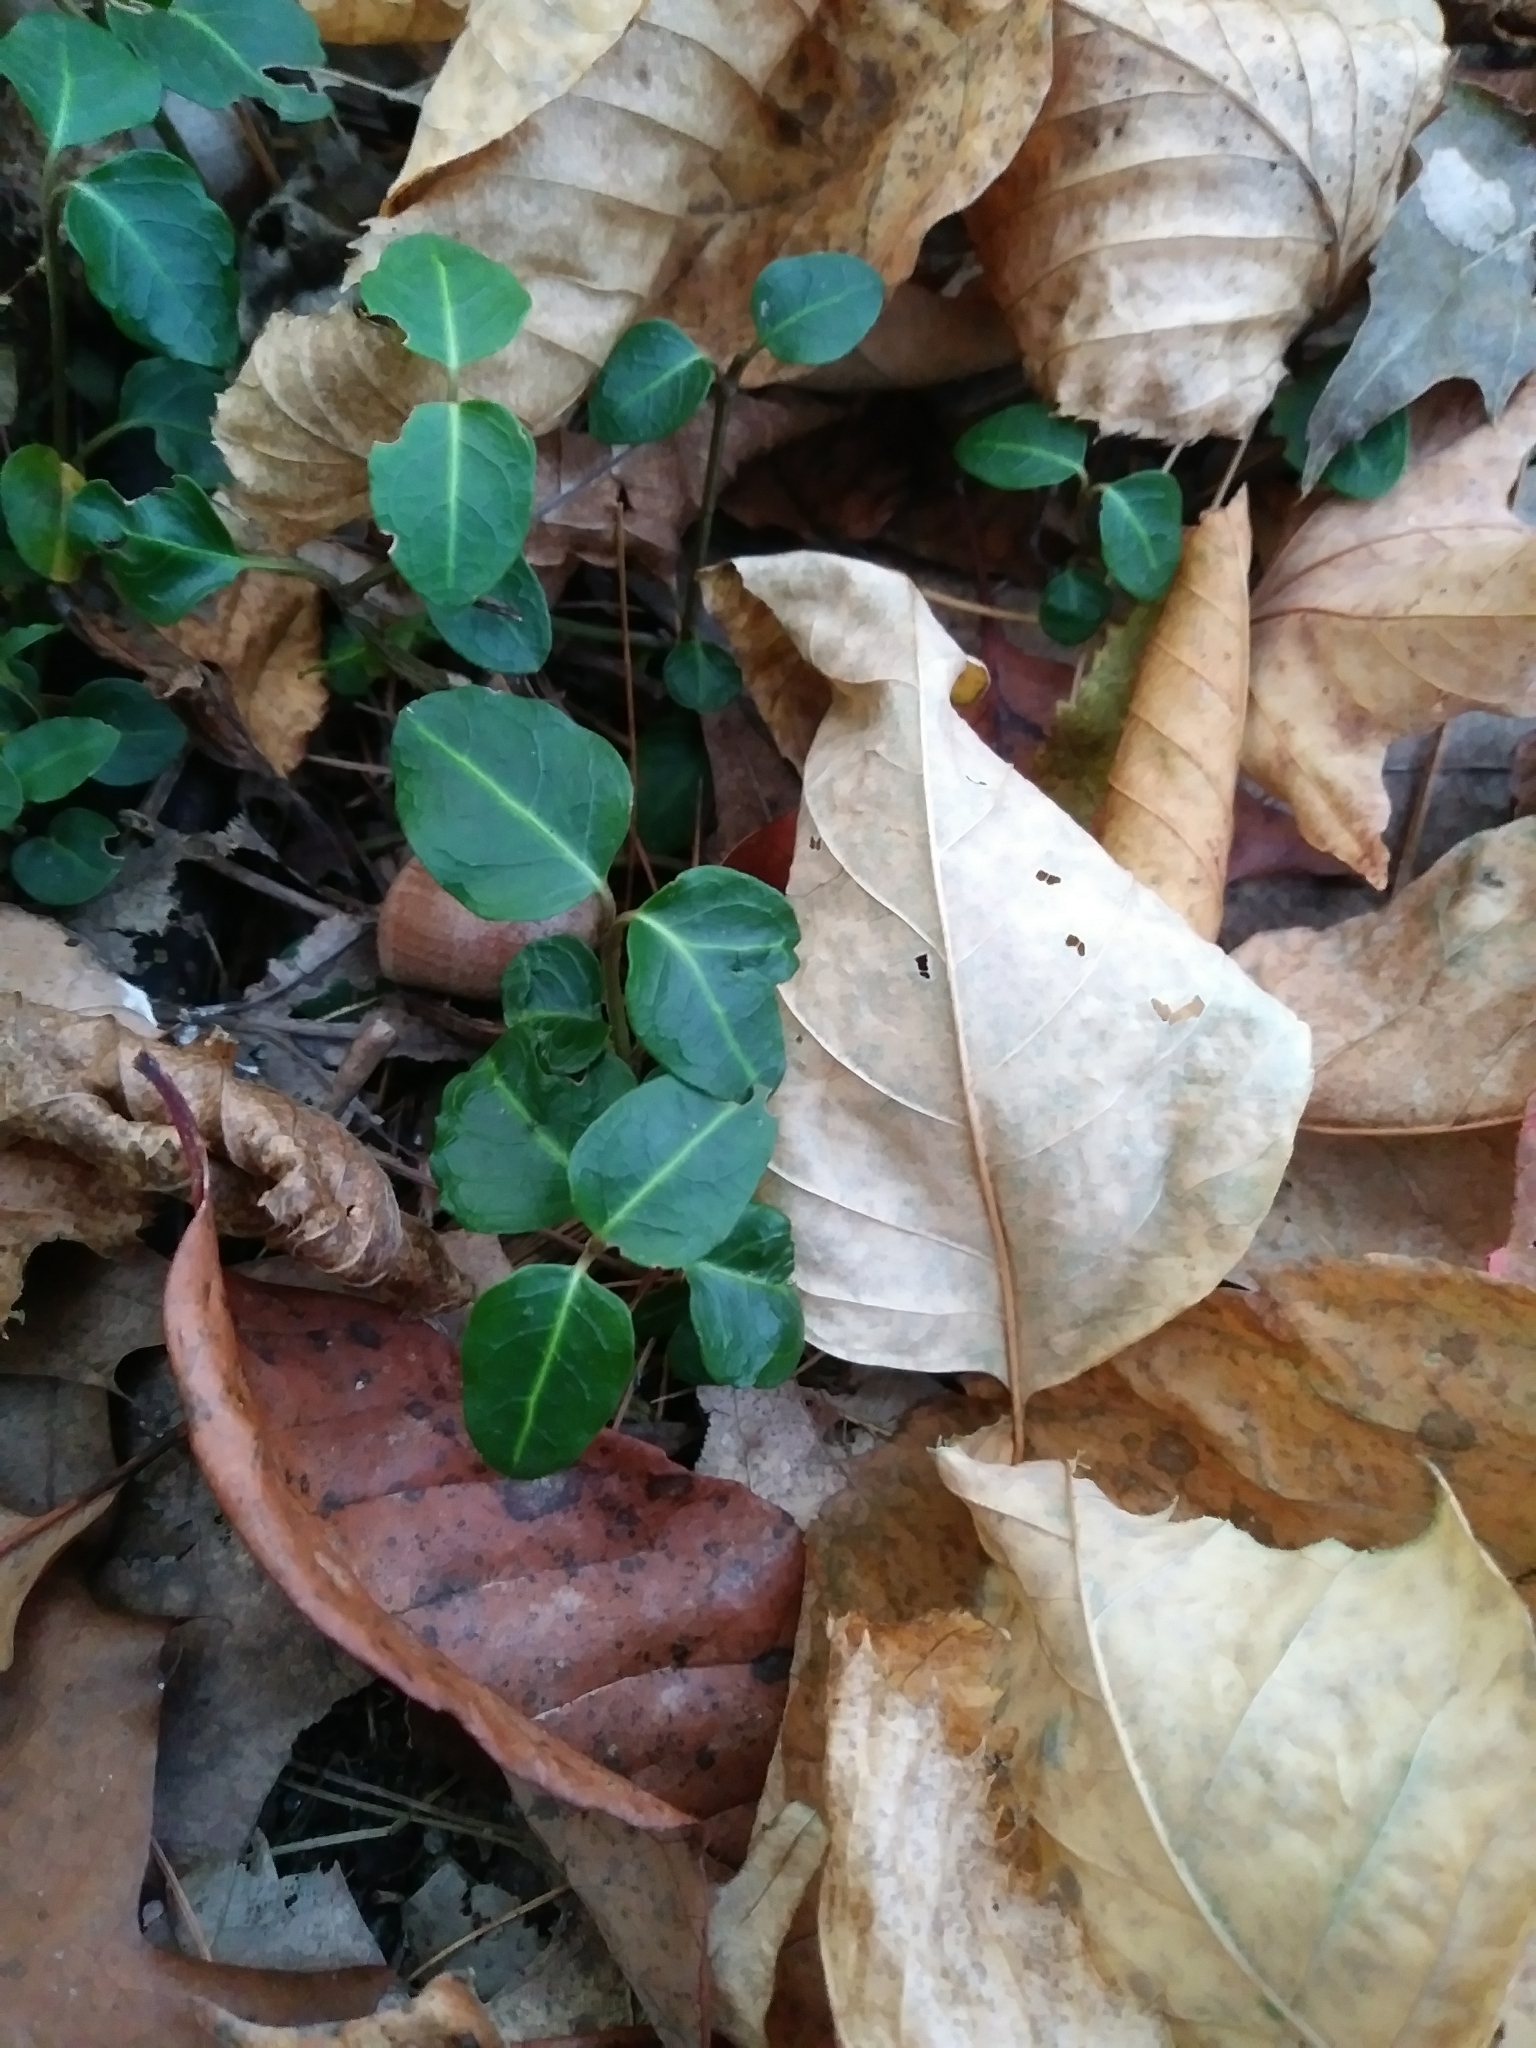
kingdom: Plantae
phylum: Tracheophyta
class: Magnoliopsida
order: Gentianales
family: Rubiaceae
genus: Mitchella
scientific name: Mitchella repens
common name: Partridge-berry
